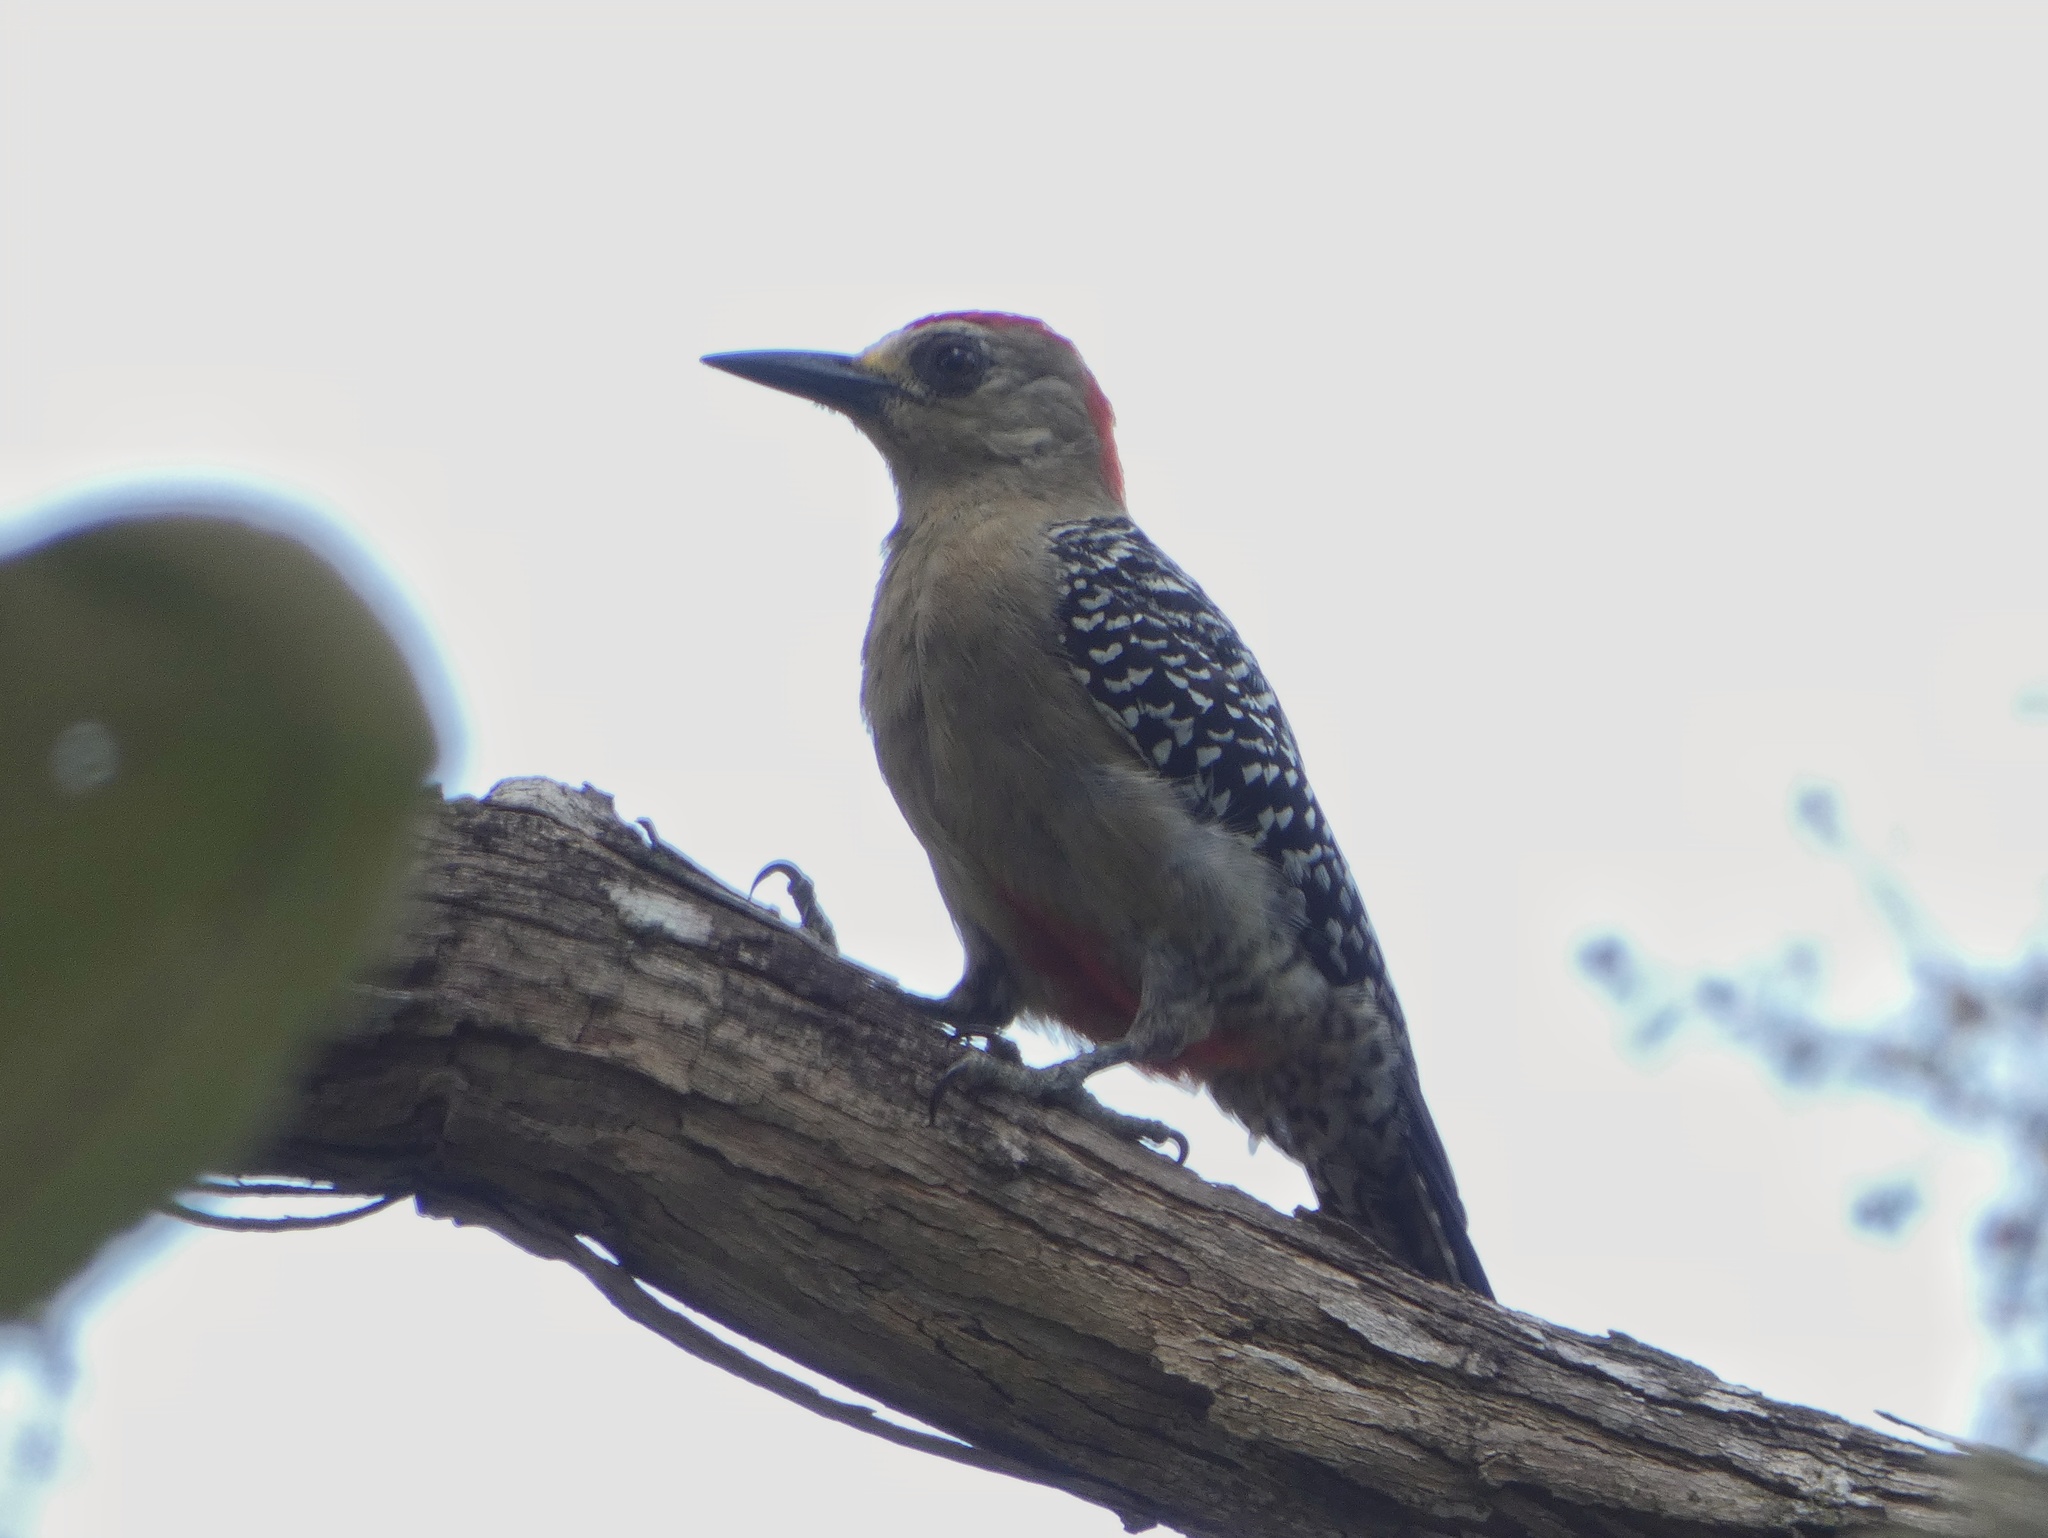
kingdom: Animalia
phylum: Chordata
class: Aves
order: Piciformes
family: Picidae
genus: Melanerpes
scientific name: Melanerpes rubricapillus
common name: Red-crowned woodpecker
